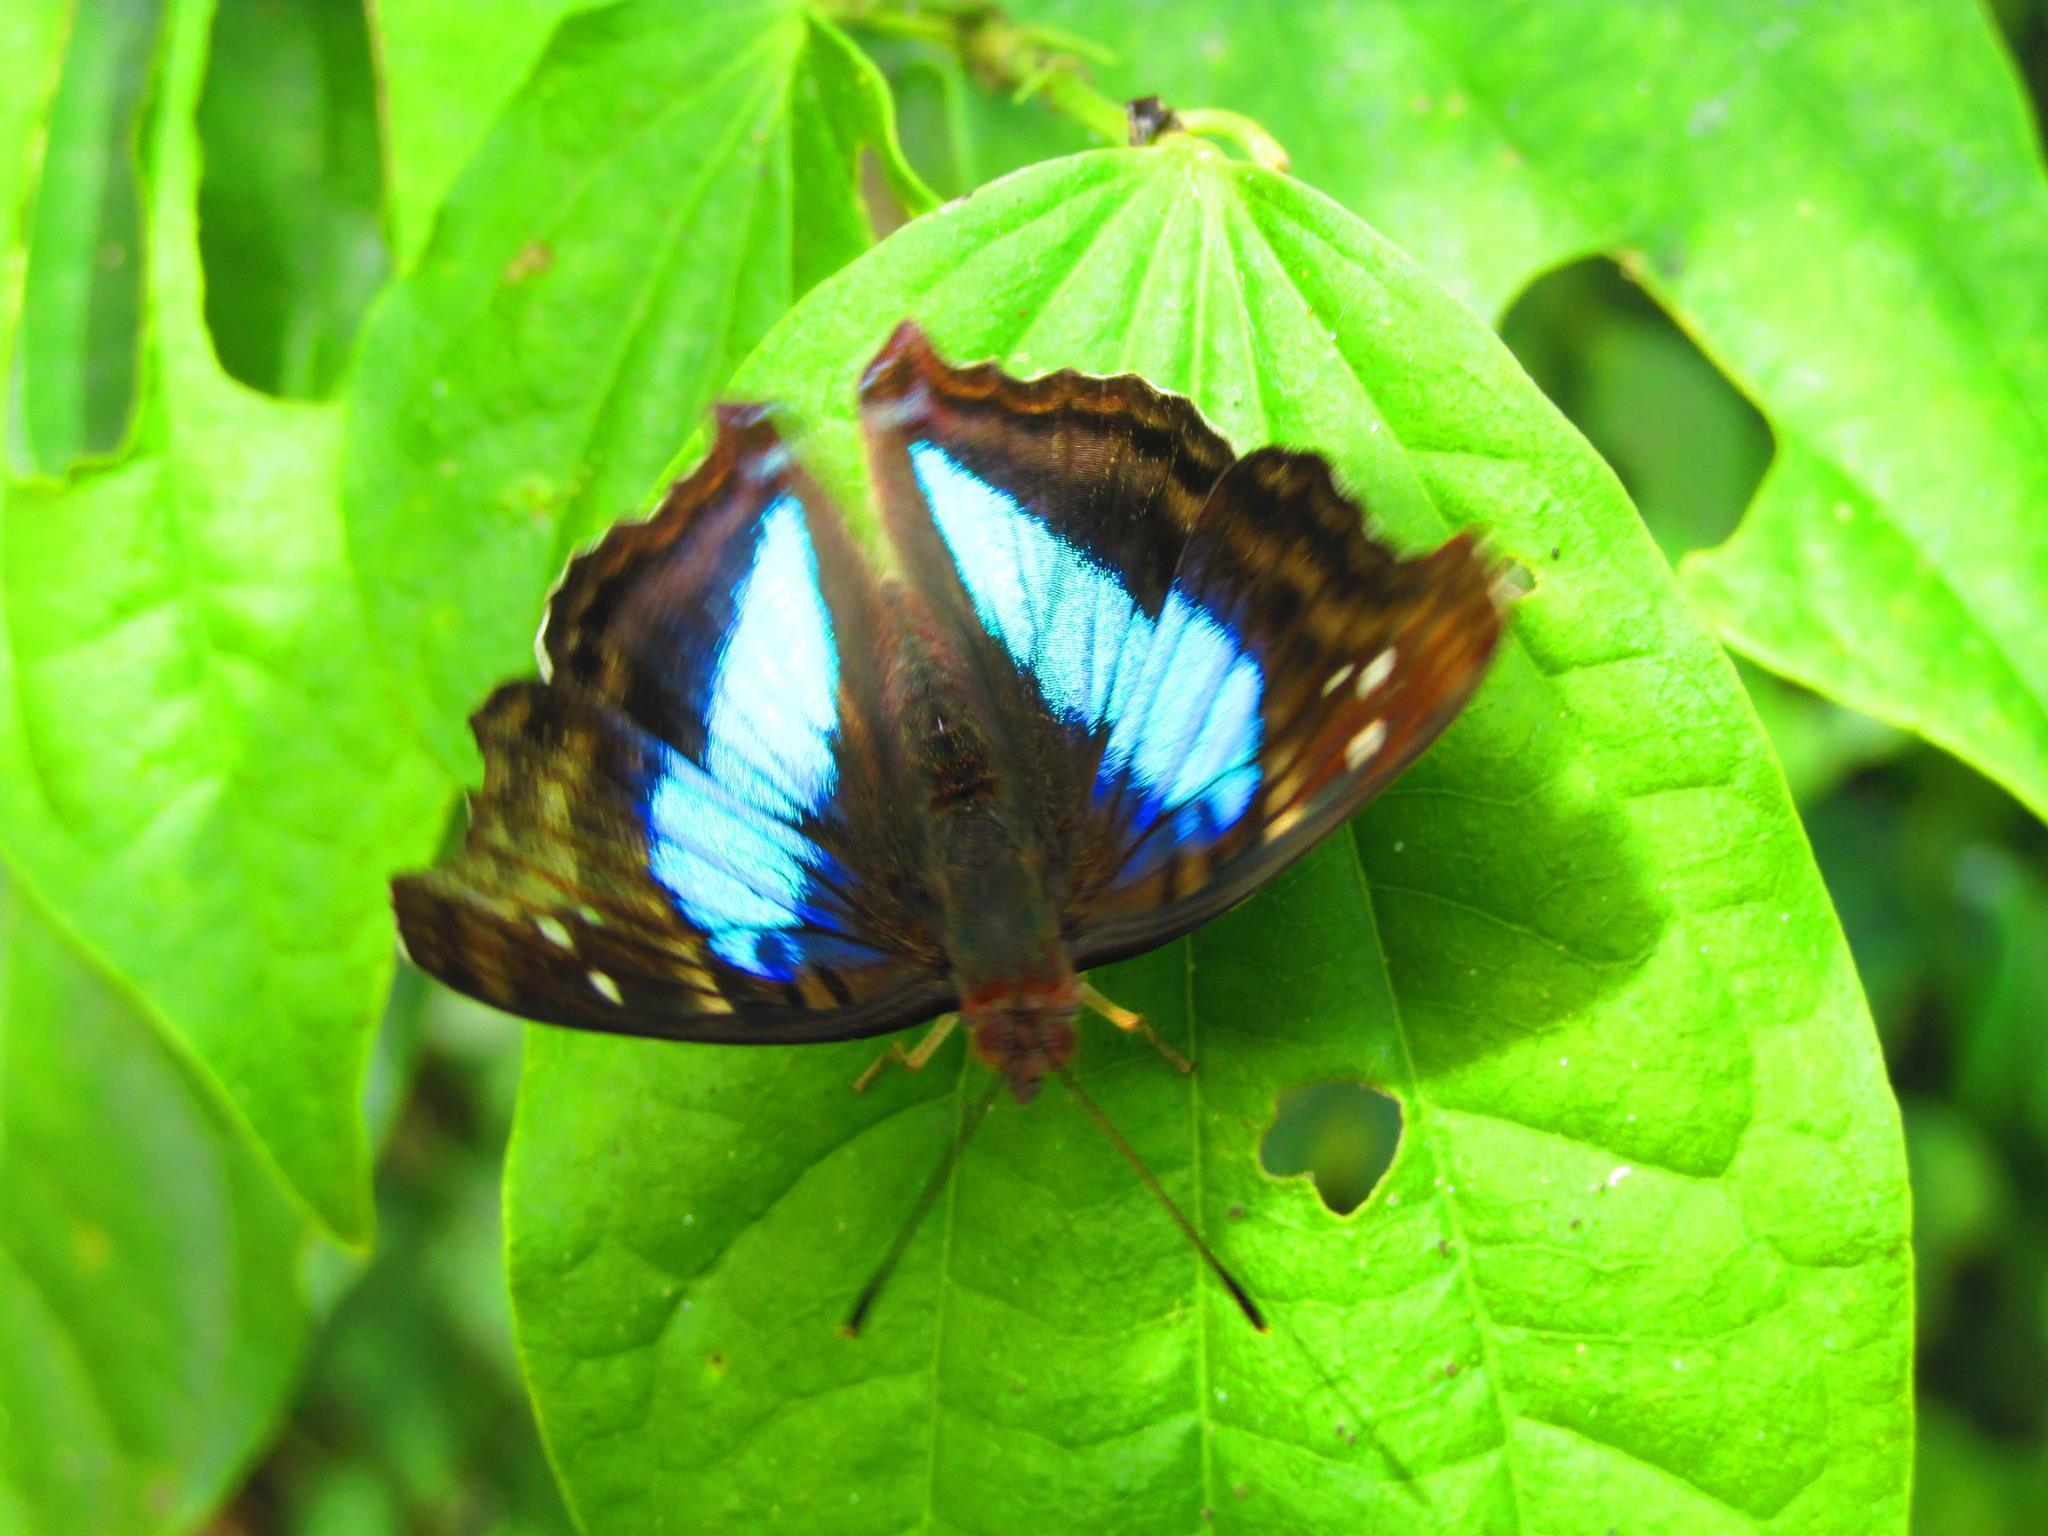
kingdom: Animalia
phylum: Arthropoda
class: Insecta
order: Lepidoptera
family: Nymphalidae
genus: Doxocopa
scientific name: Doxocopa laurentia
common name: Turquoise emperor
